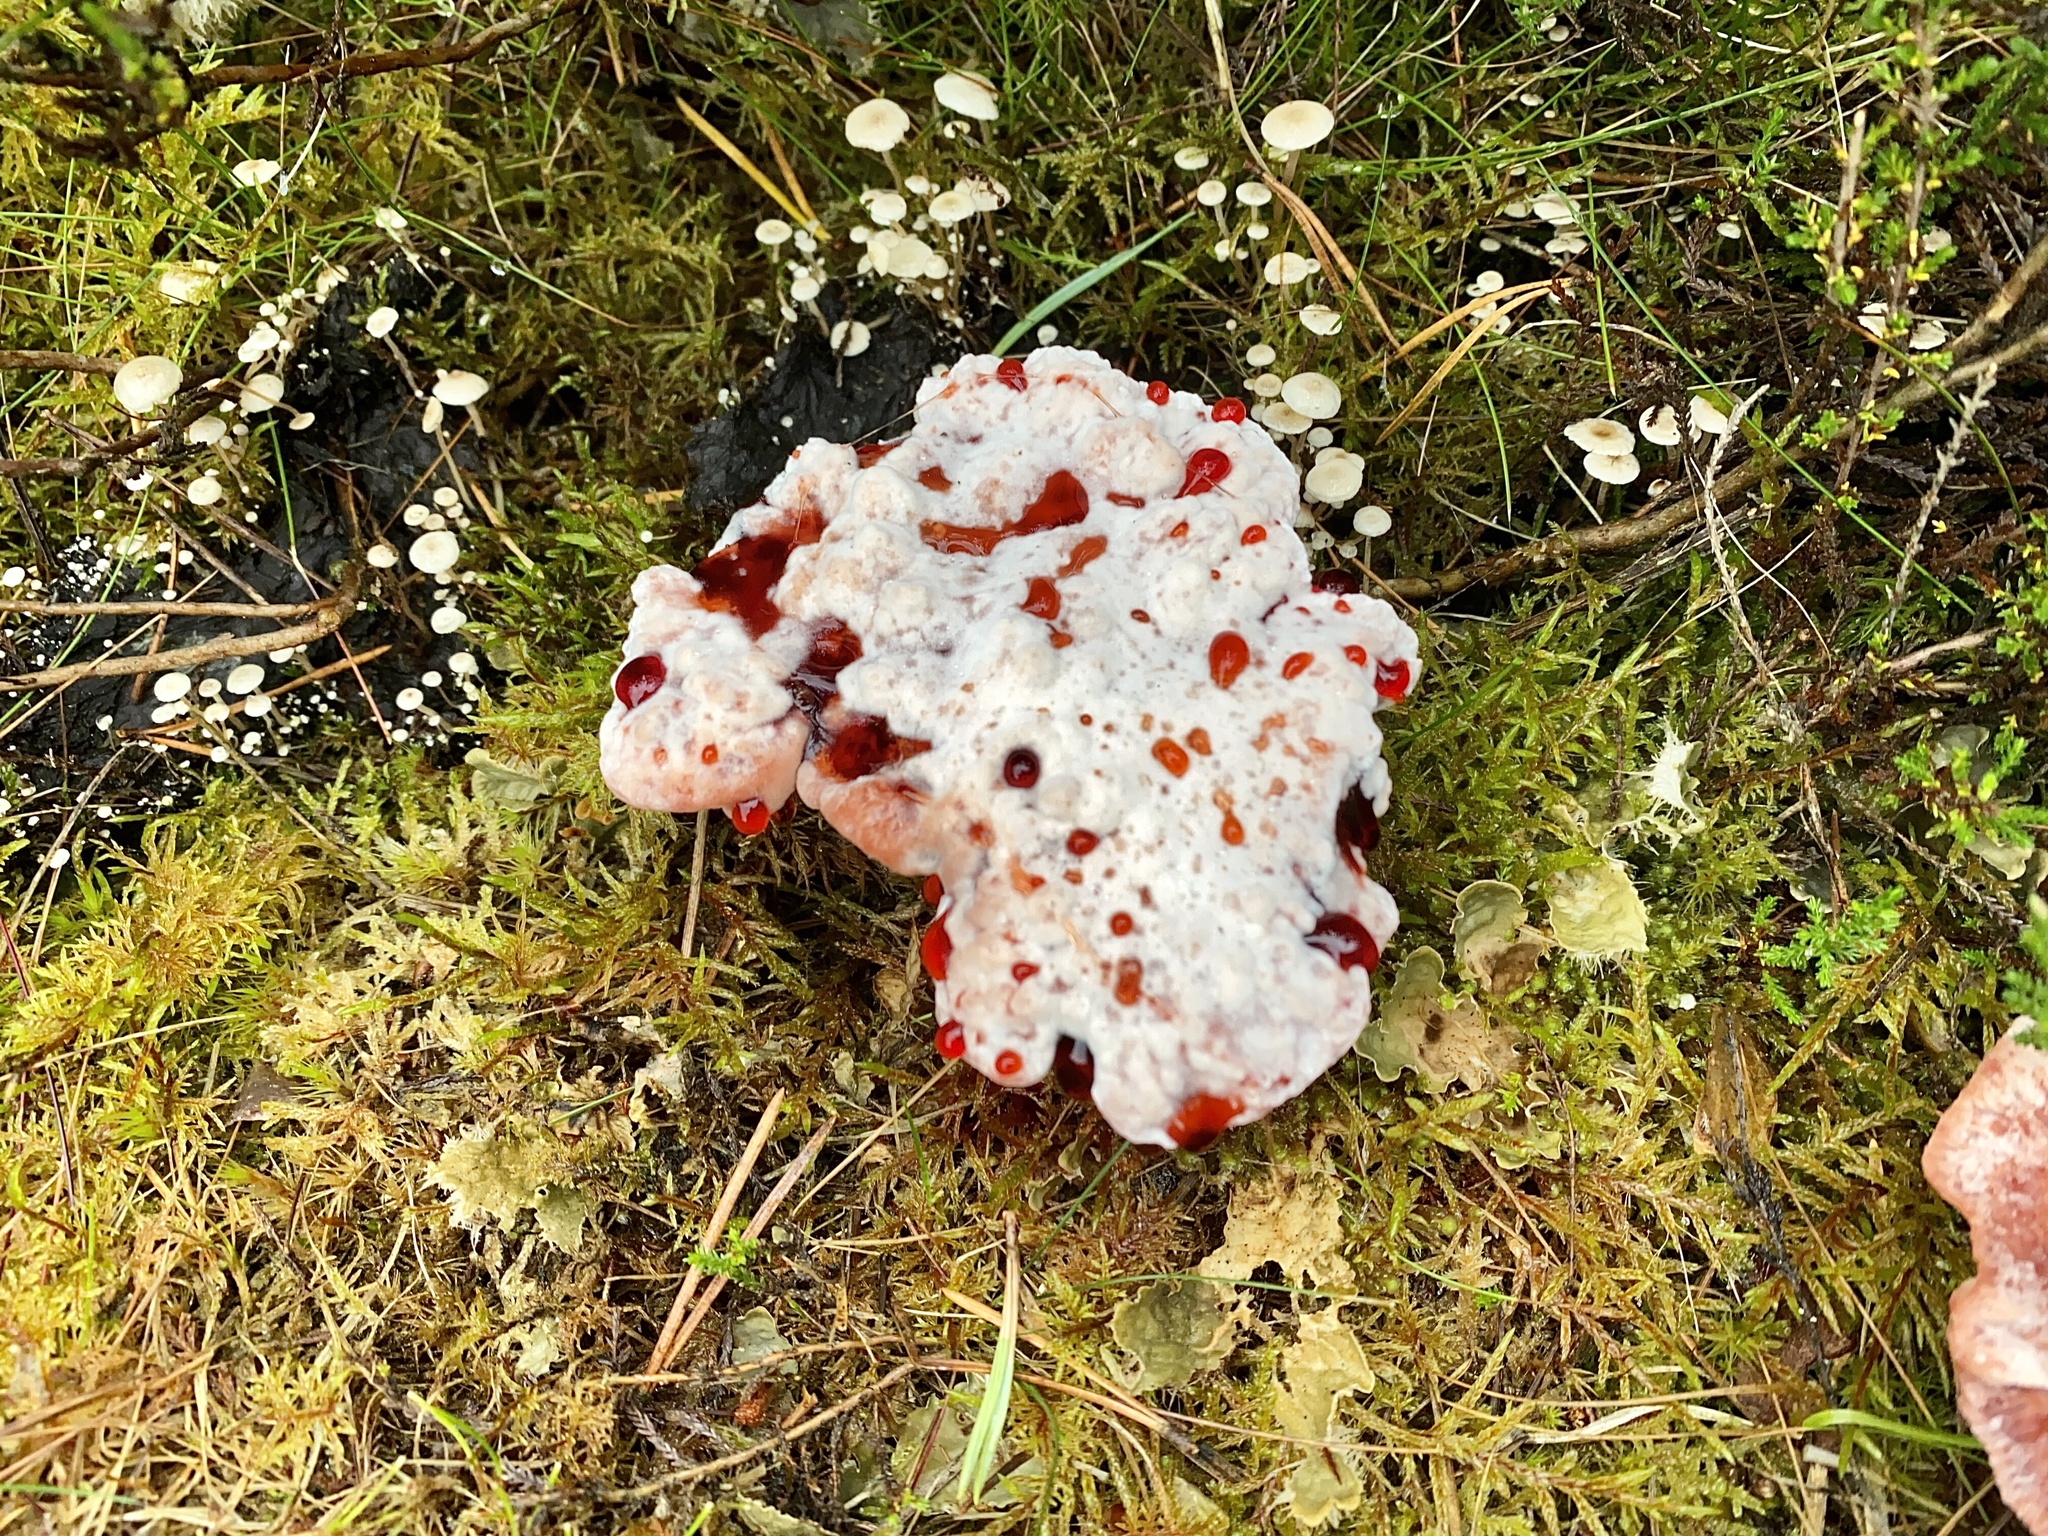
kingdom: Fungi
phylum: Basidiomycota
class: Agaricomycetes
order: Thelephorales
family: Bankeraceae
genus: Hydnellum
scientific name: Hydnellum peckii
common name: Devil's tooth
